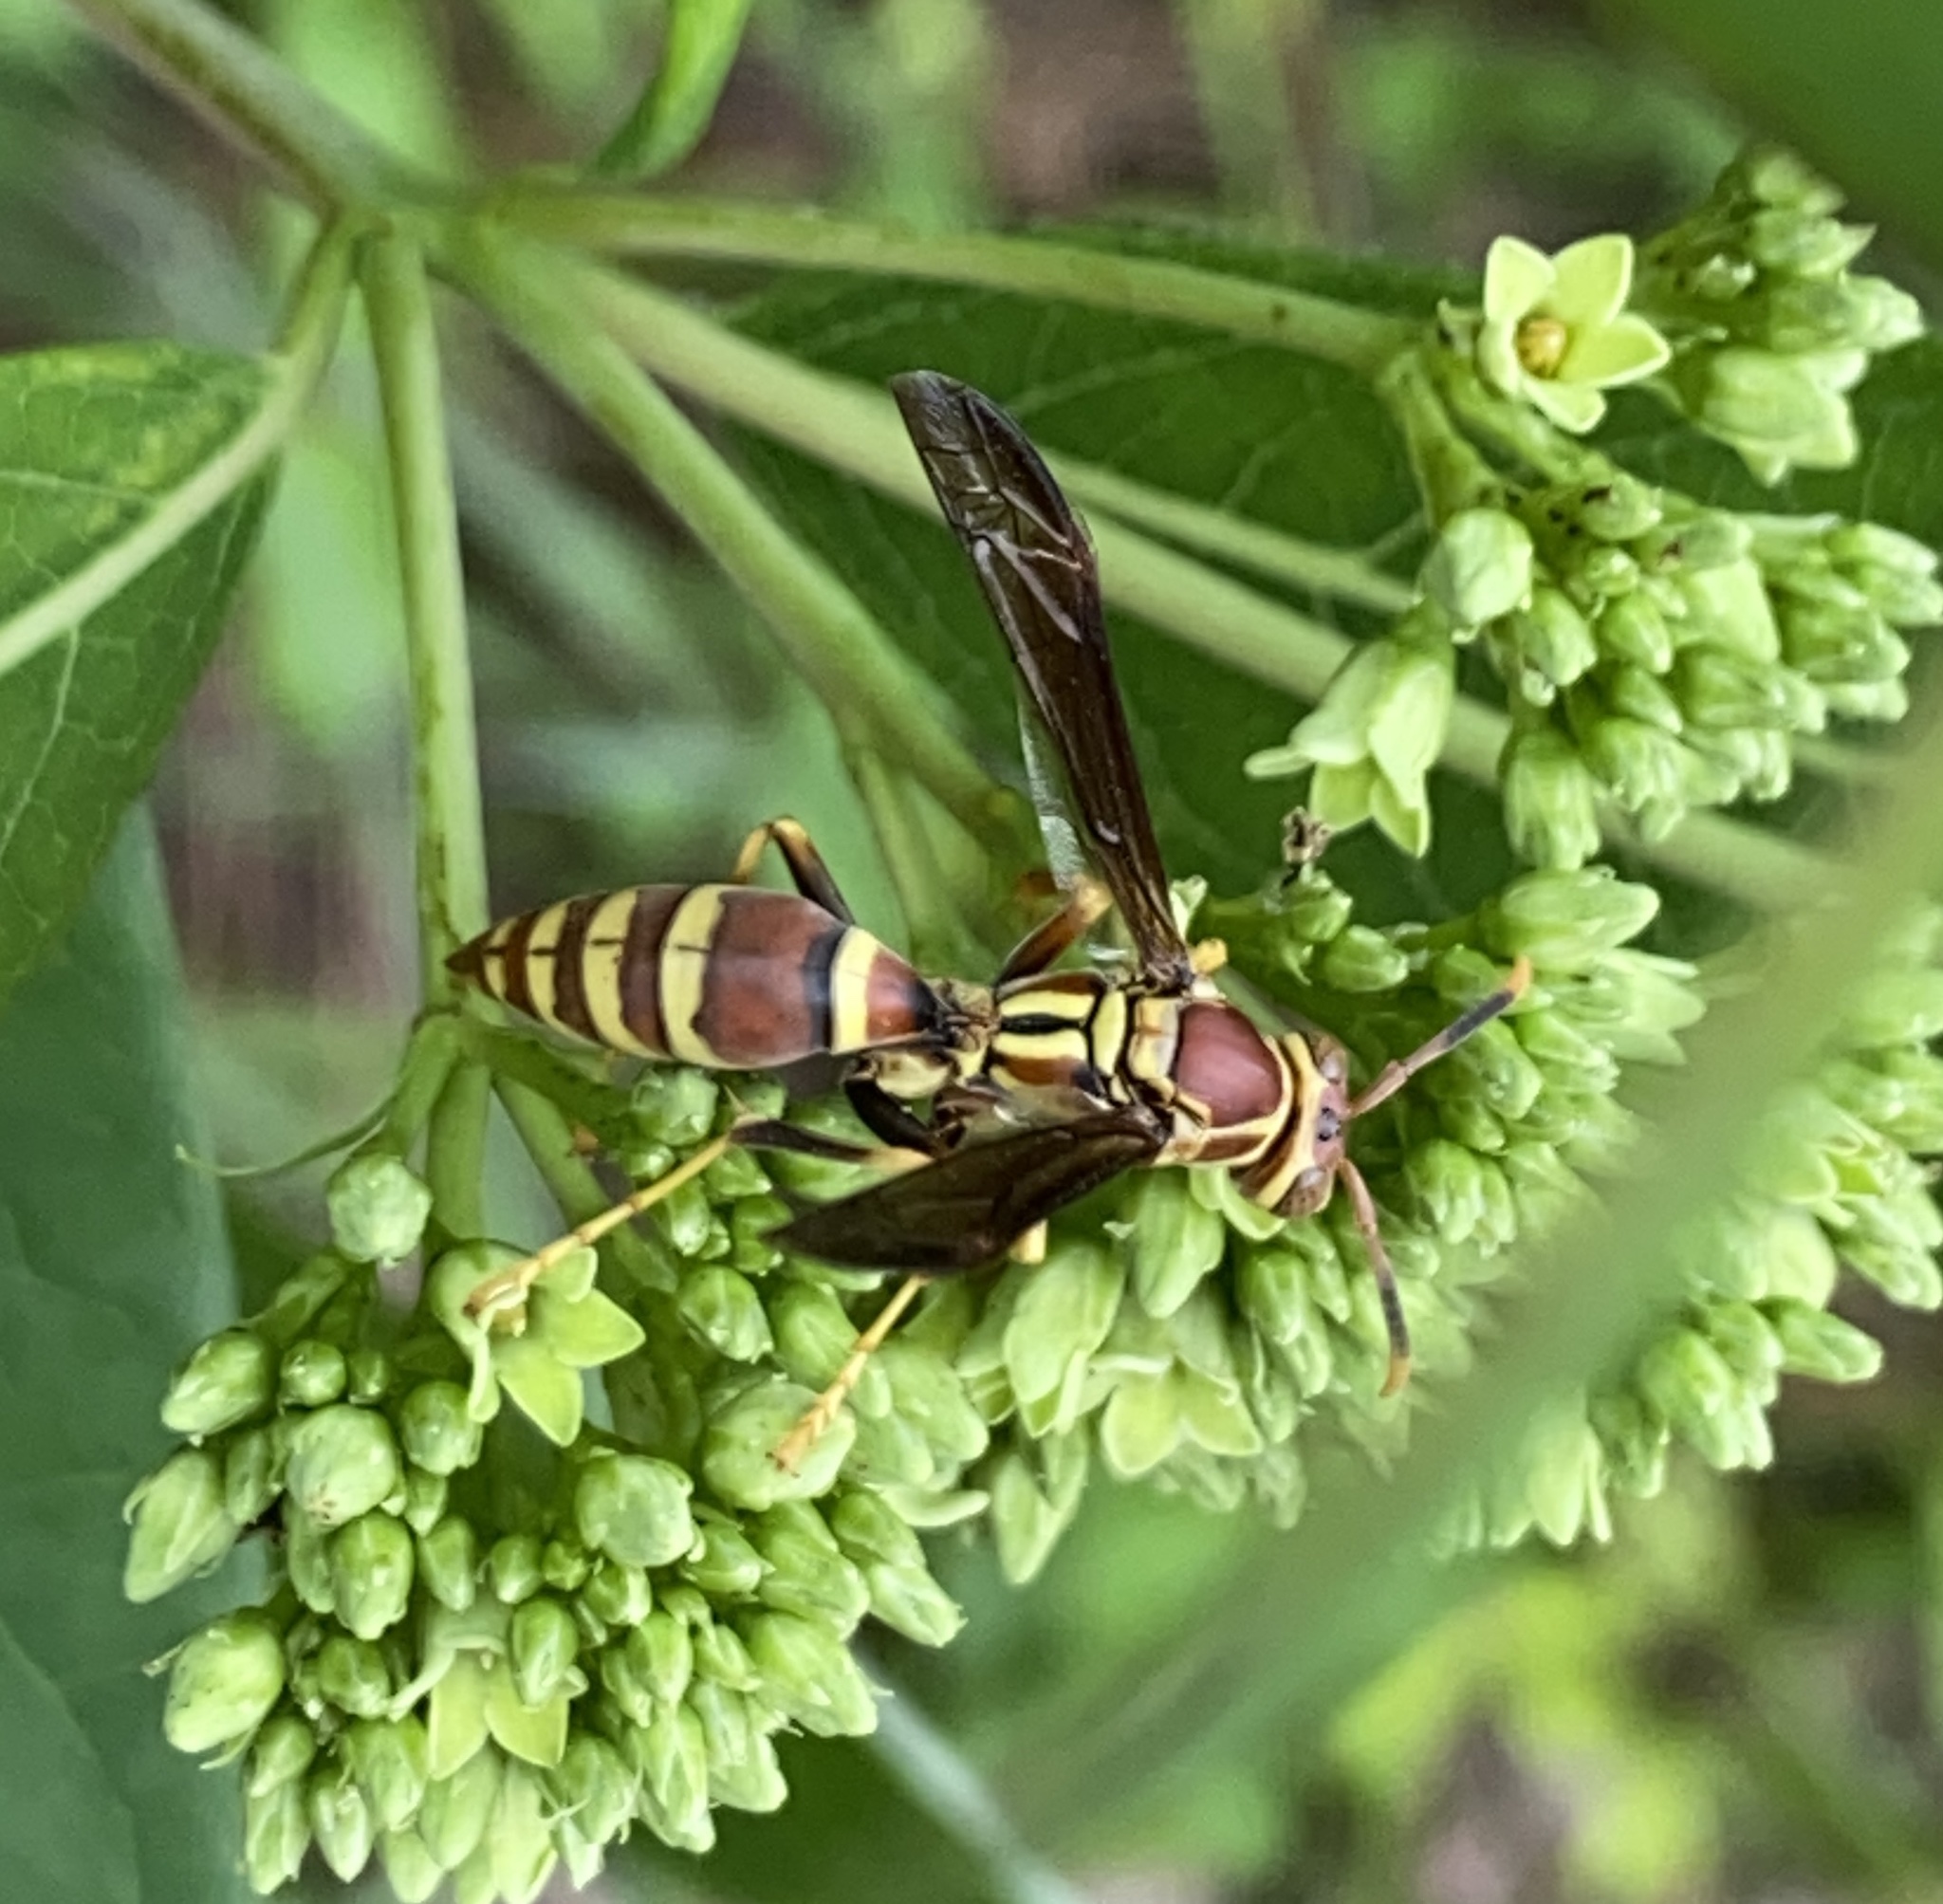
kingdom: Animalia
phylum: Arthropoda
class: Insecta
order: Hymenoptera
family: Eumenidae
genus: Polistes
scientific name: Polistes exclamans
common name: Paper wasp
